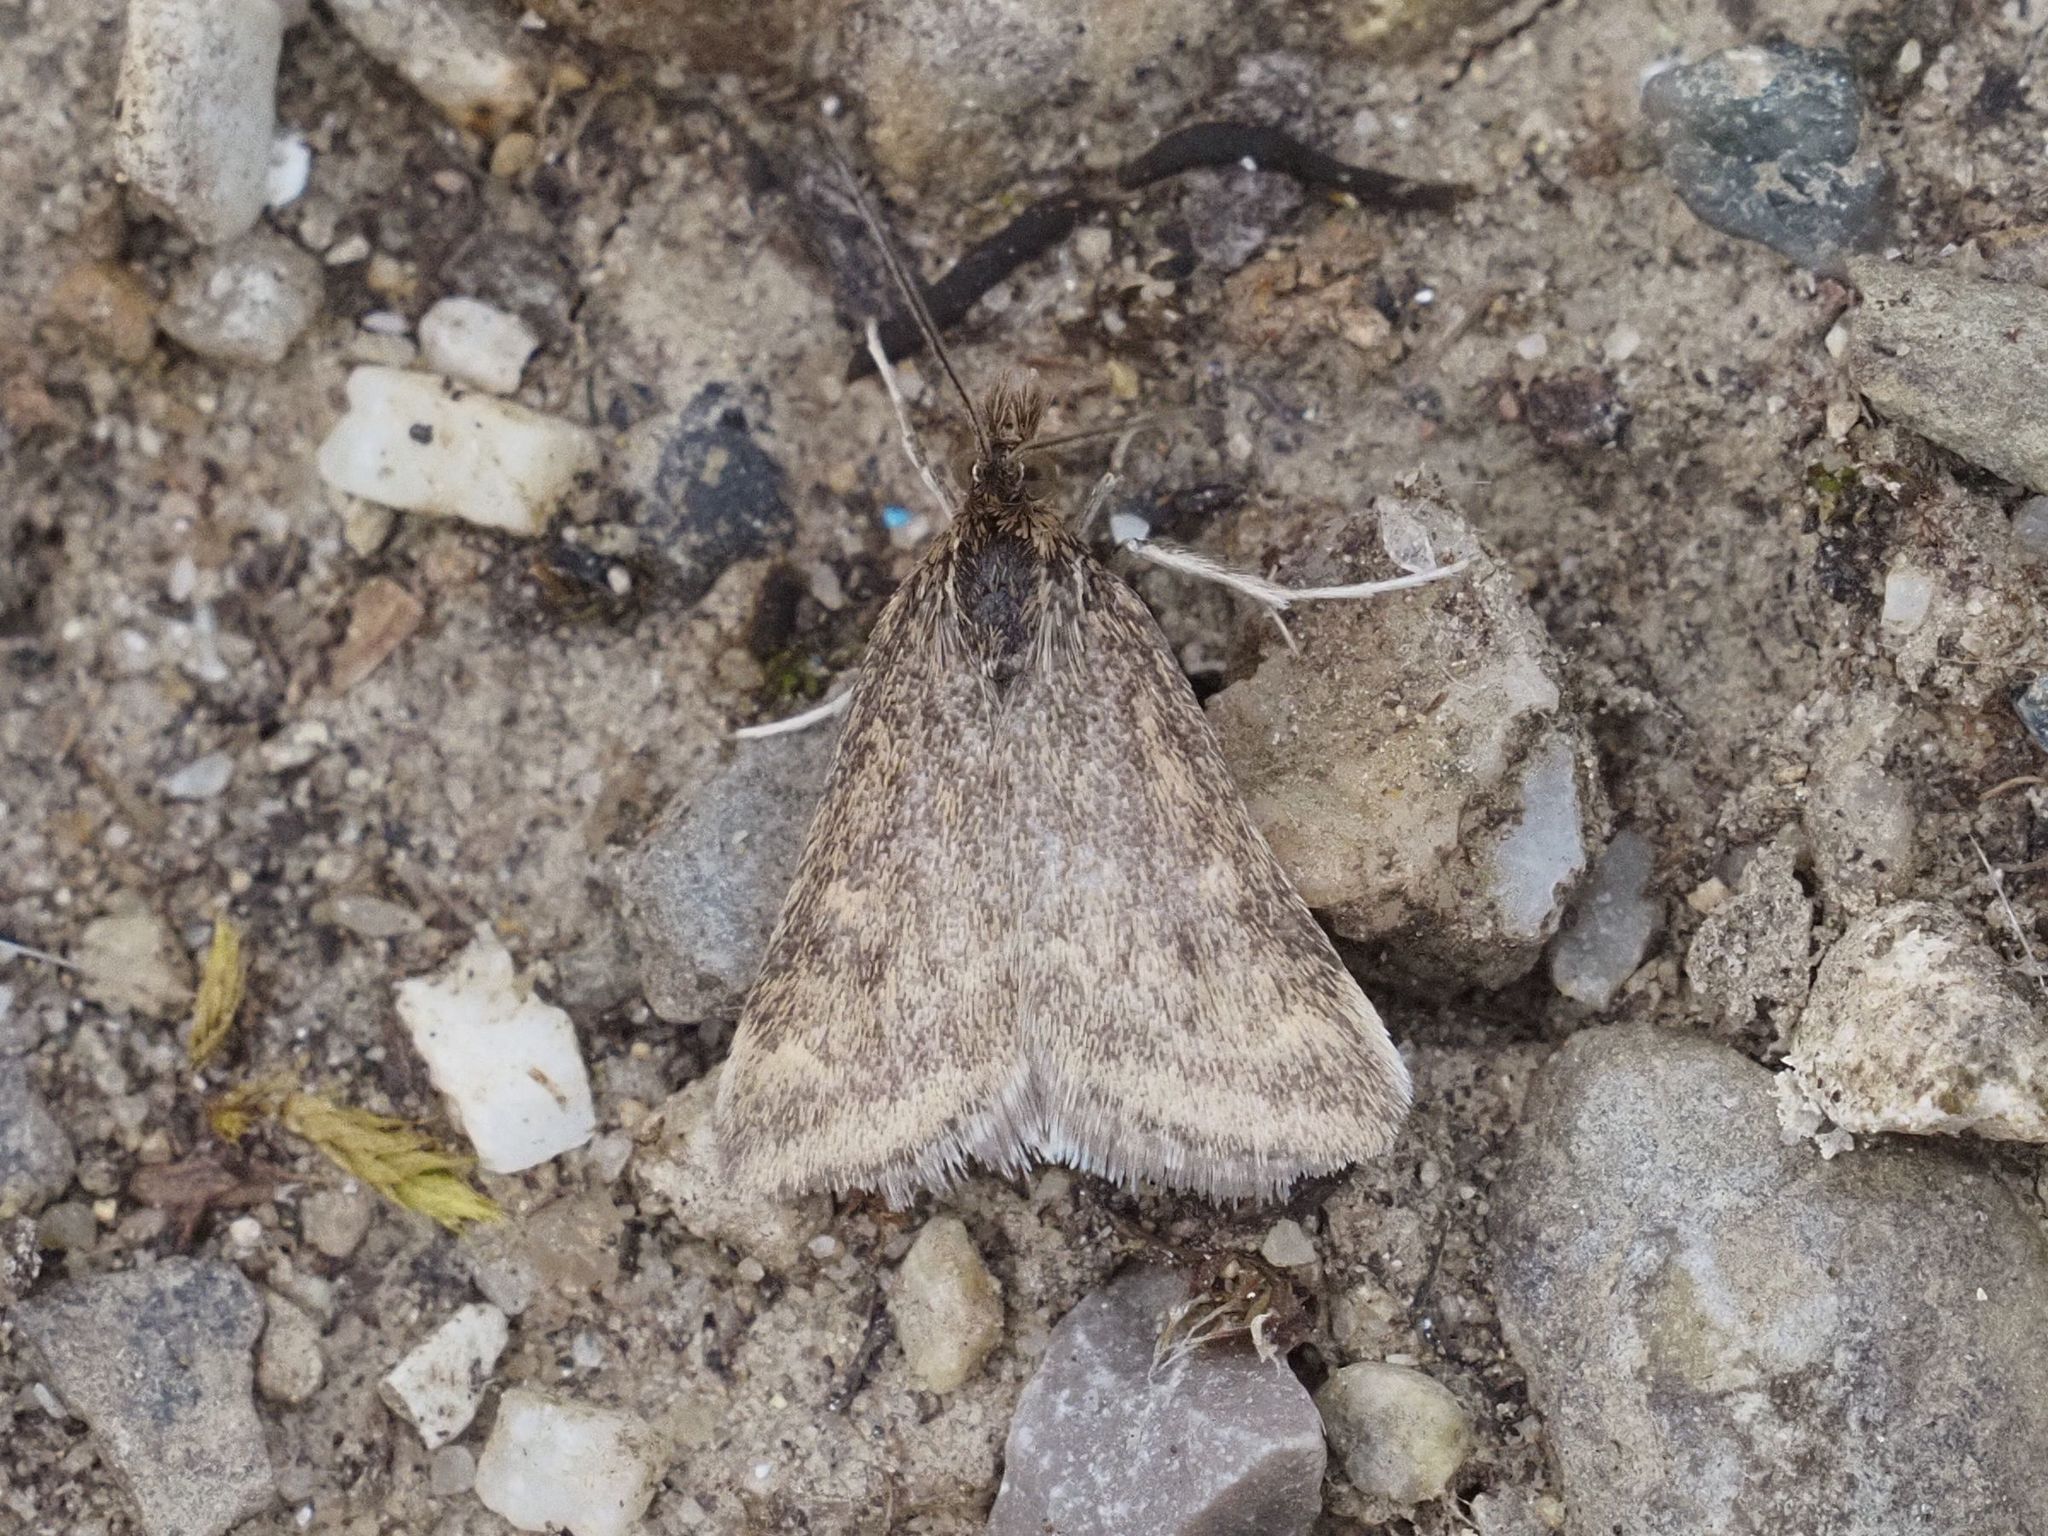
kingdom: Animalia
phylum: Arthropoda
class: Insecta
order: Lepidoptera
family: Crambidae
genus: Pyrausta
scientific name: Pyrausta despicata
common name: Straw-barred pearl
